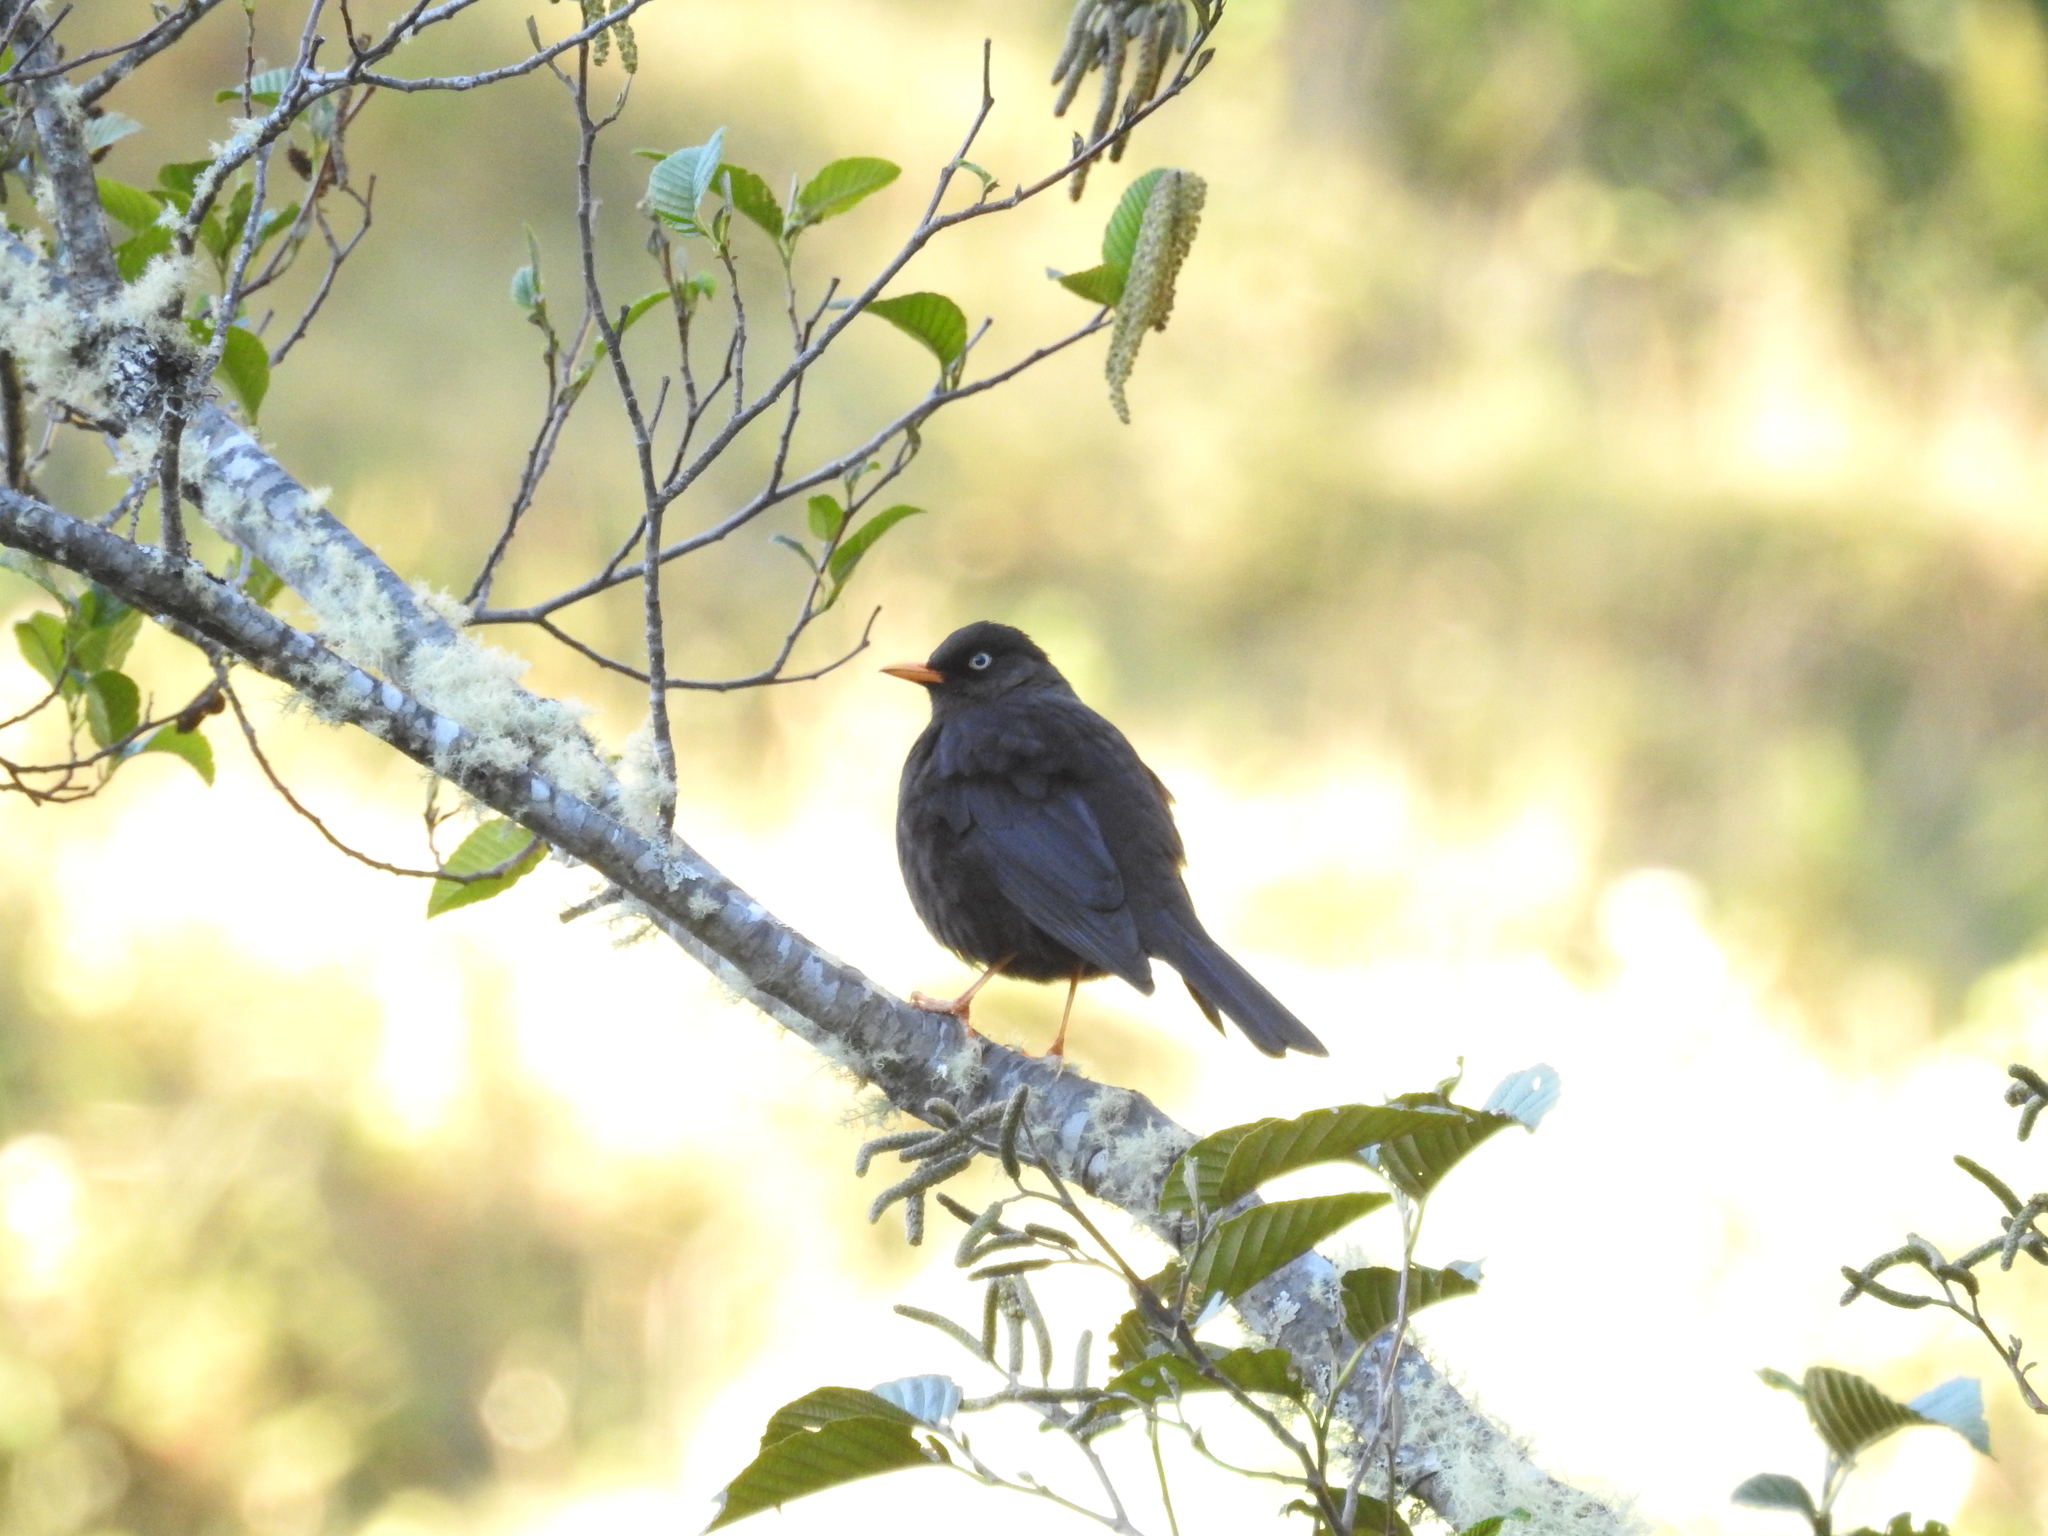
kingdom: Animalia
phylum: Chordata
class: Aves
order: Passeriformes
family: Turdidae
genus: Turdus
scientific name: Turdus nigrescens
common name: Sooty thrush
